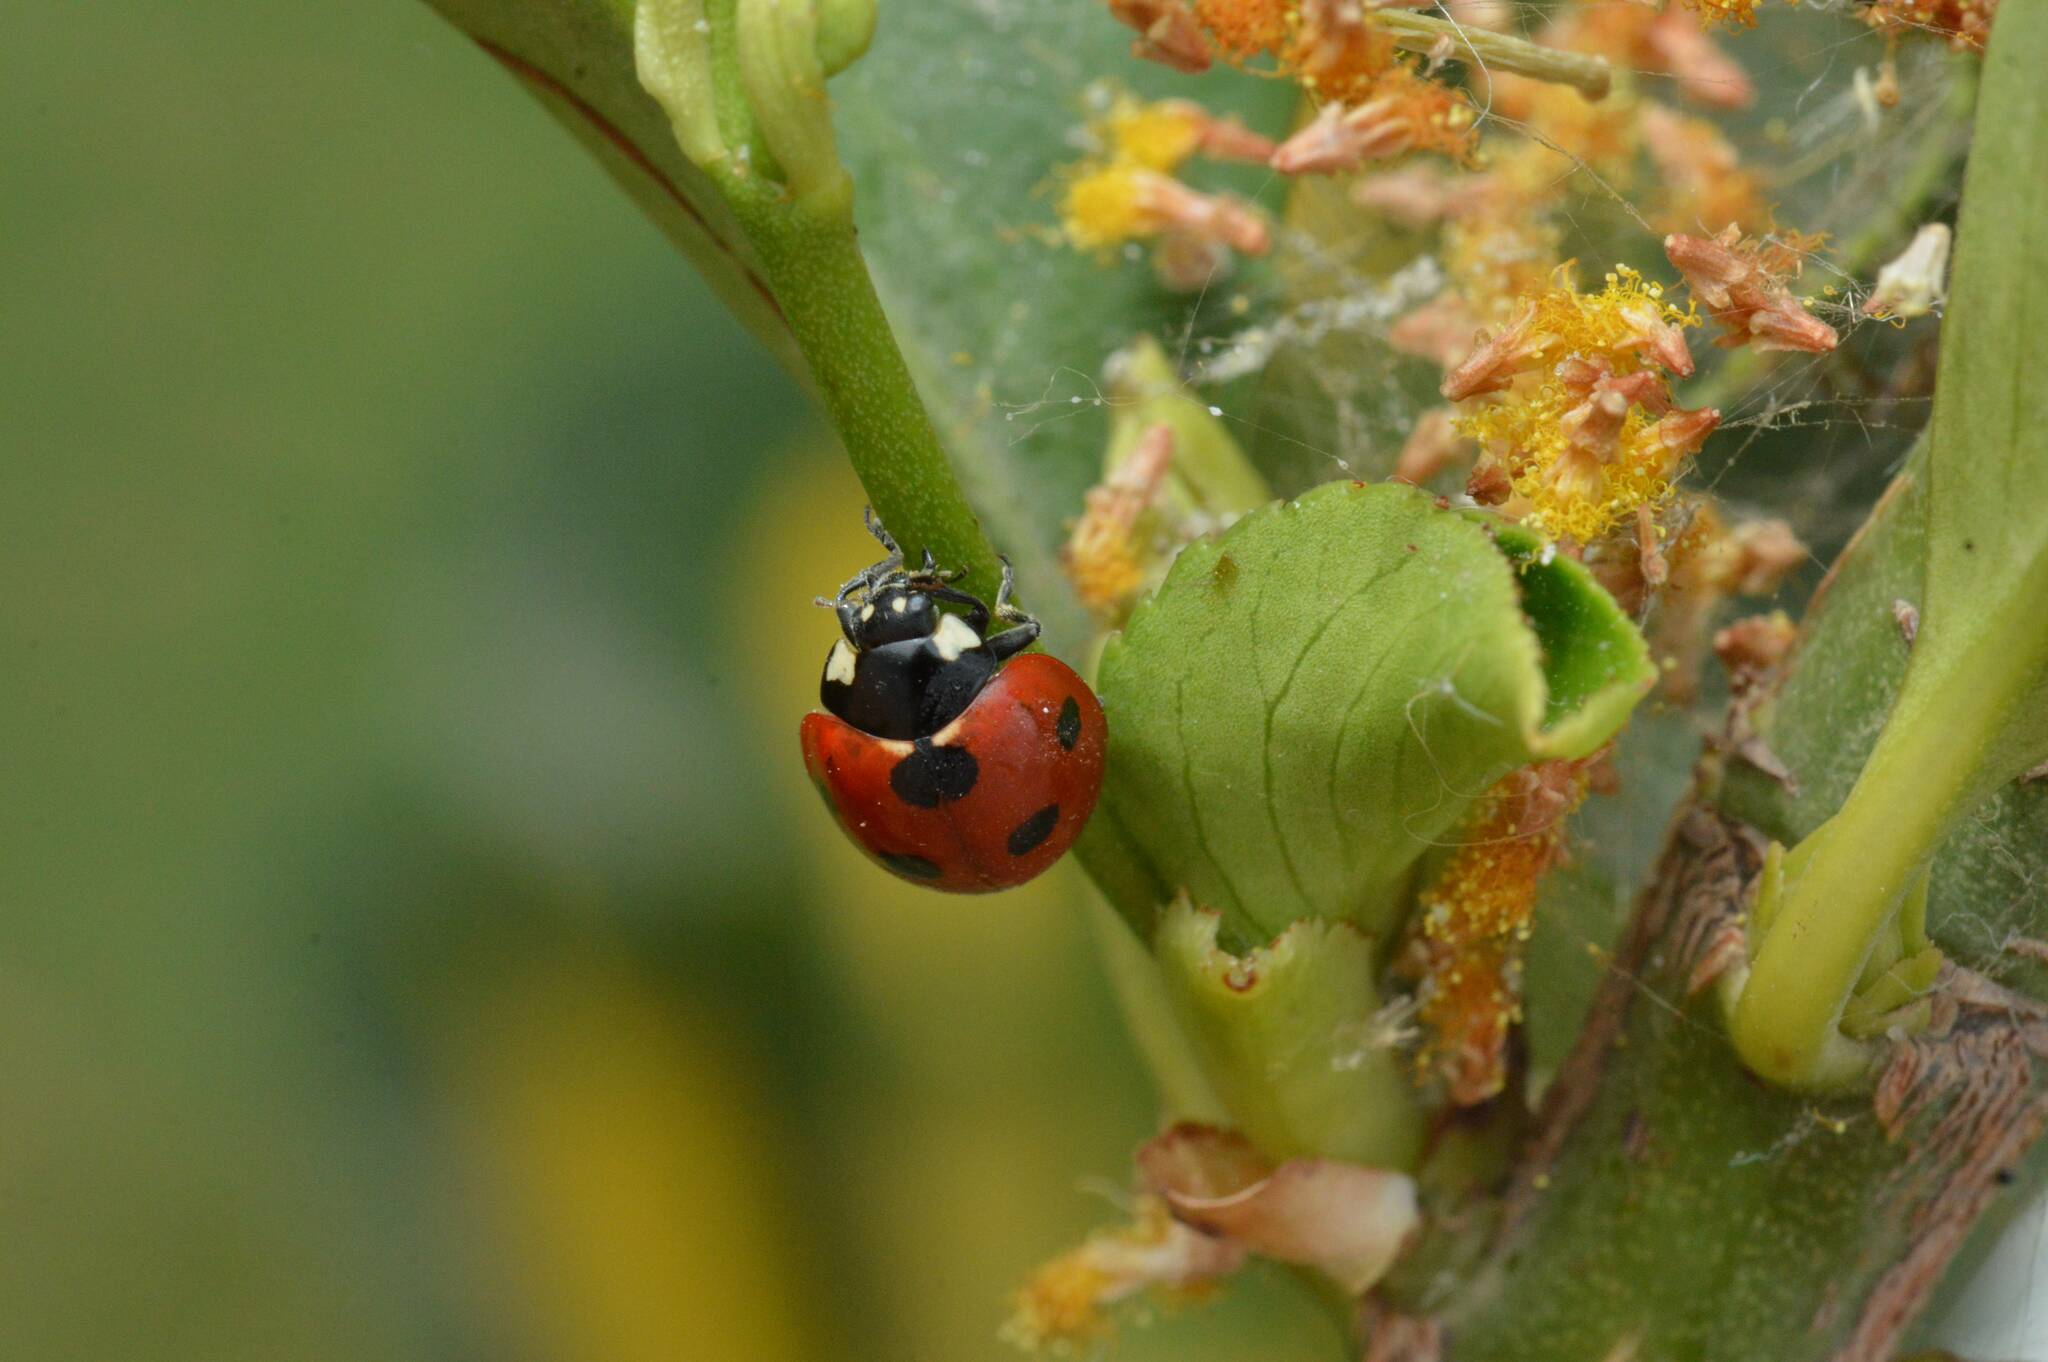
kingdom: Animalia
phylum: Arthropoda
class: Insecta
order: Coleoptera
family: Coccinellidae
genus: Coccinella
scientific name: Coccinella algerica
